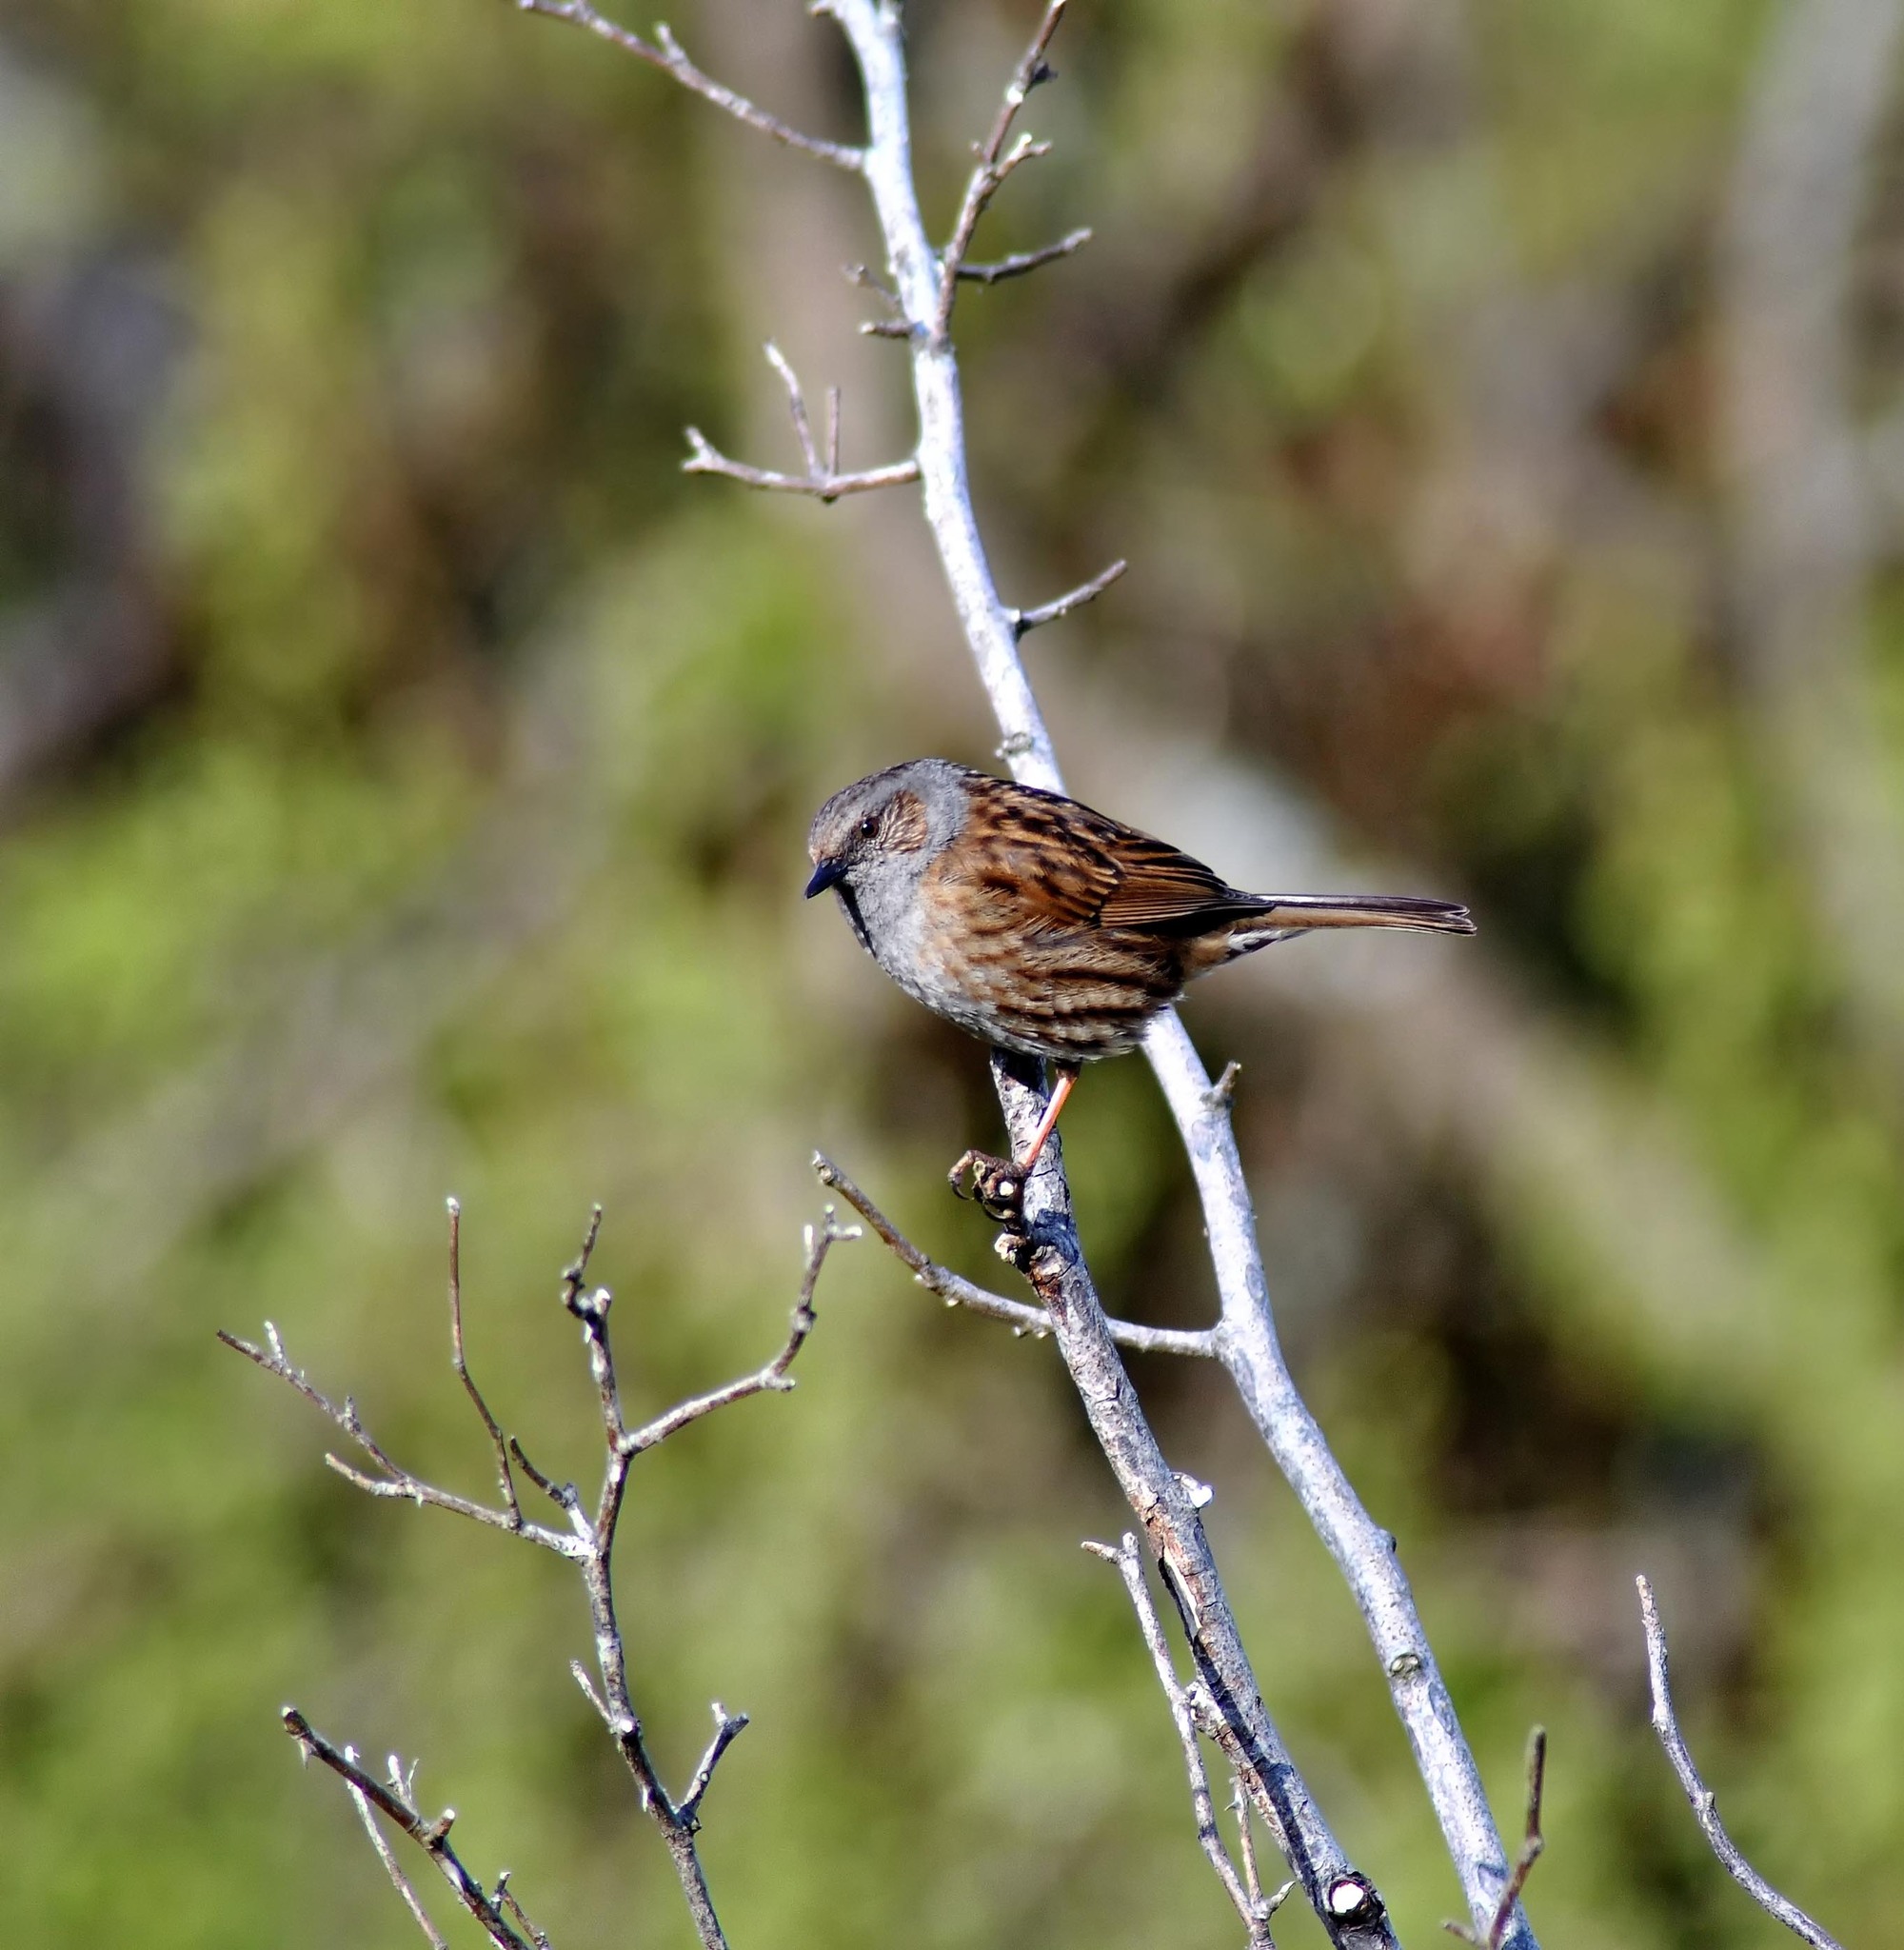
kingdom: Animalia
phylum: Chordata
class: Aves
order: Passeriformes
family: Prunellidae
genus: Prunella
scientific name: Prunella modularis
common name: Dunnock
